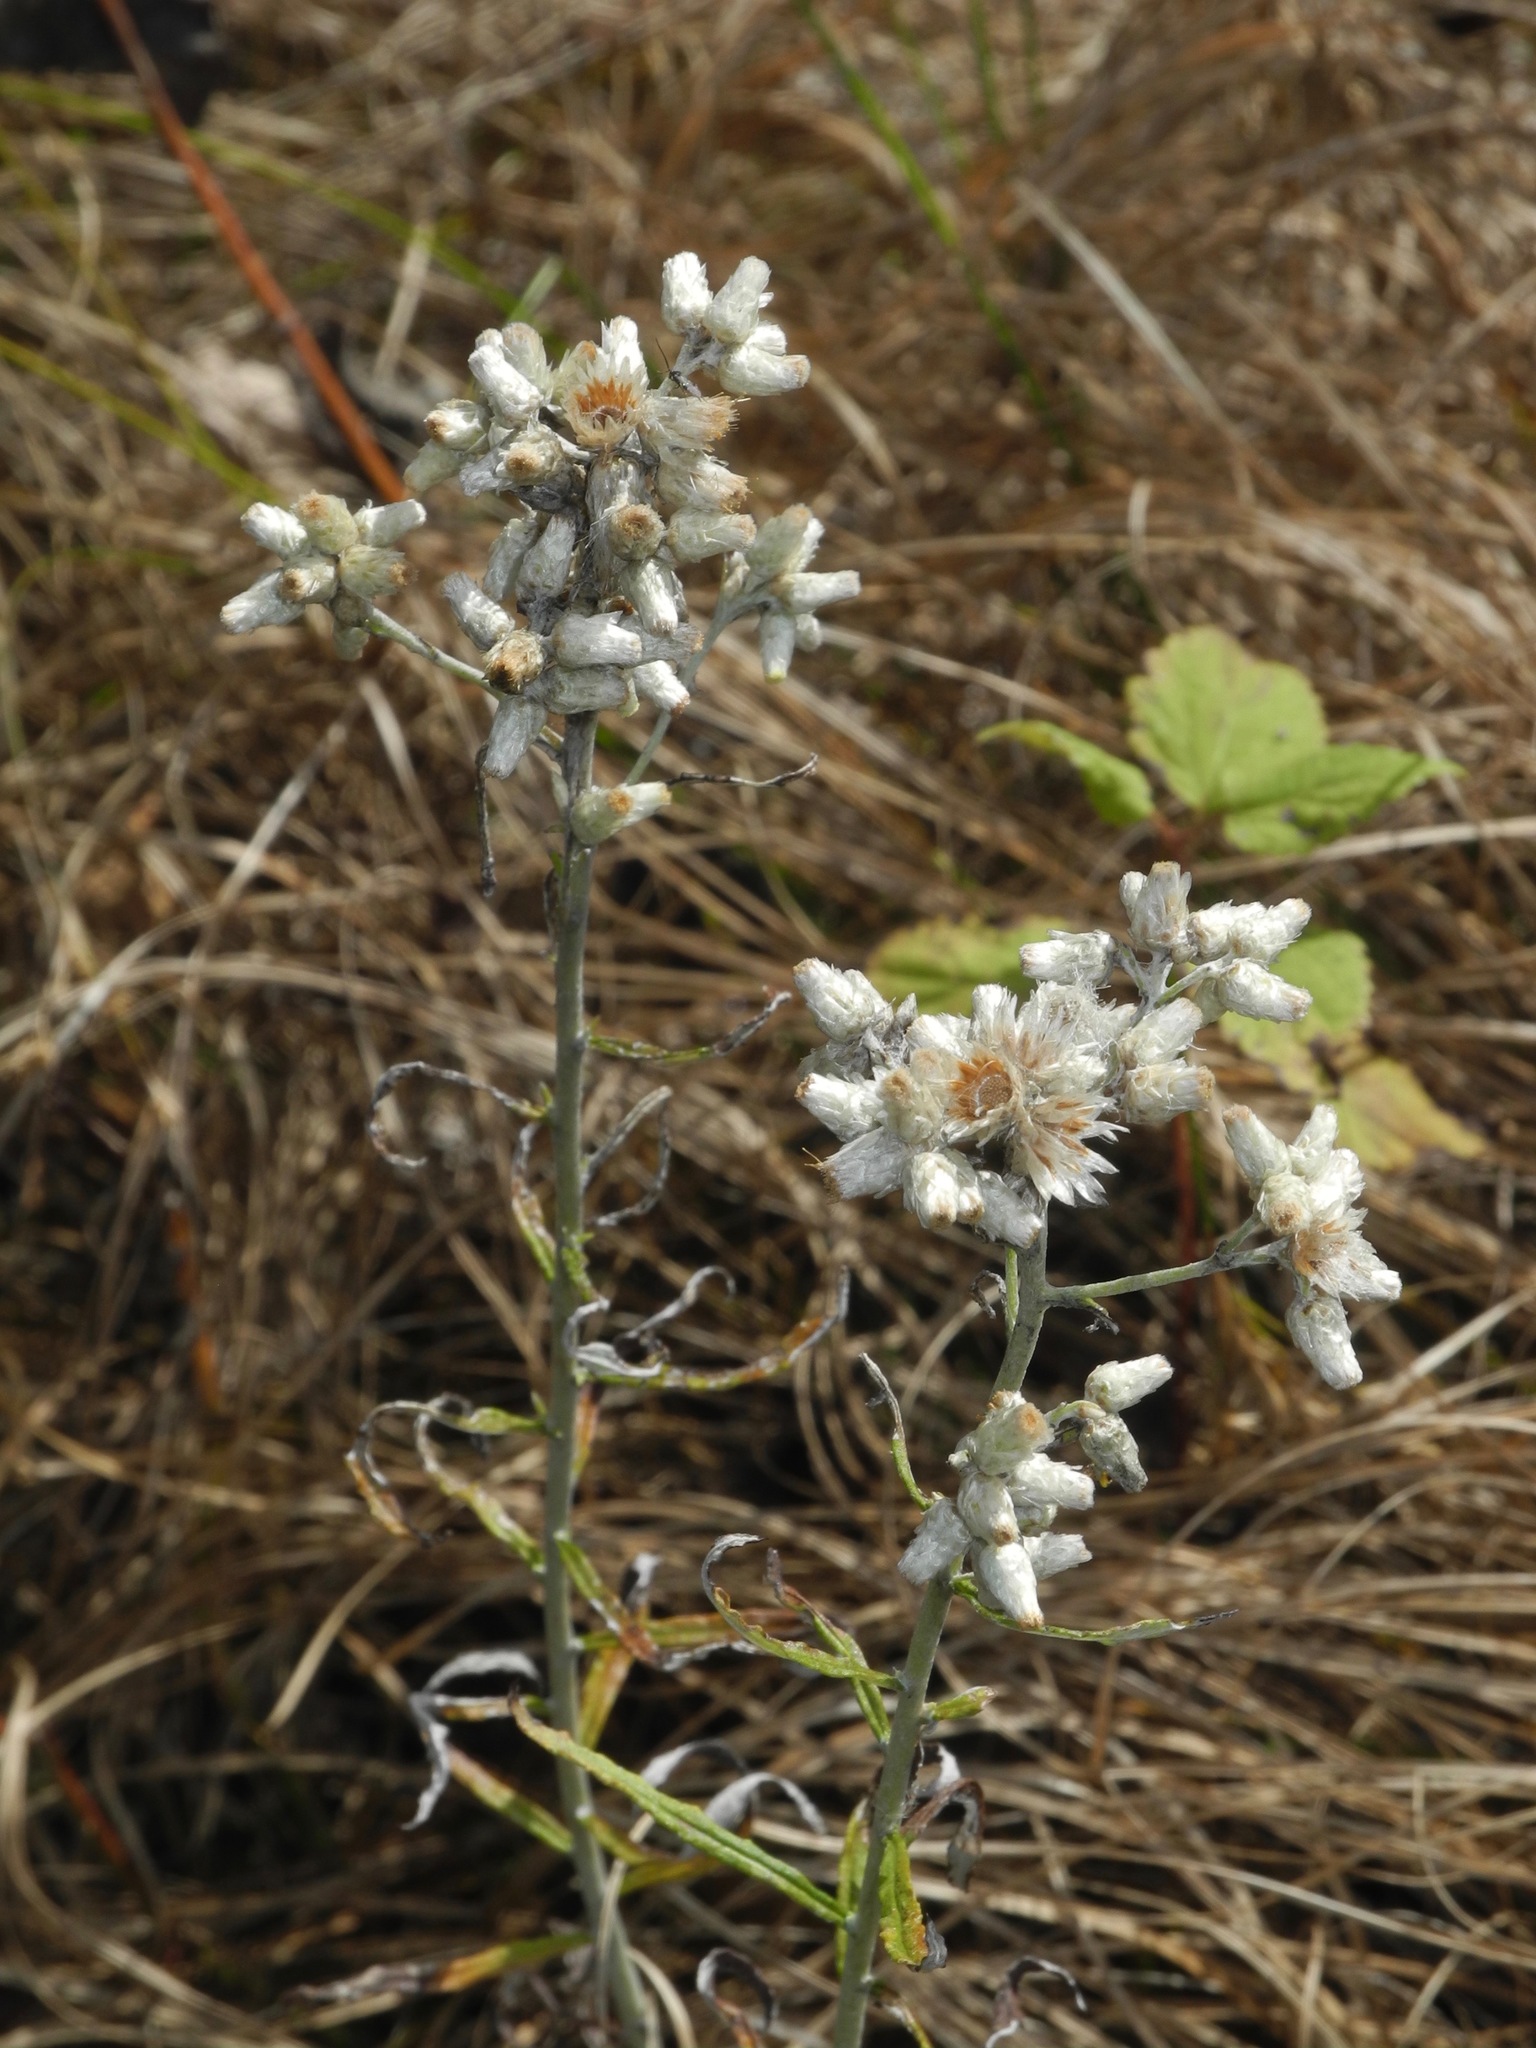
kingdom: Plantae
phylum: Tracheophyta
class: Magnoliopsida
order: Asterales
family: Asteraceae
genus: Pseudognaphalium
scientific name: Pseudognaphalium obtusifolium
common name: Eastern rabbit-tobacco
